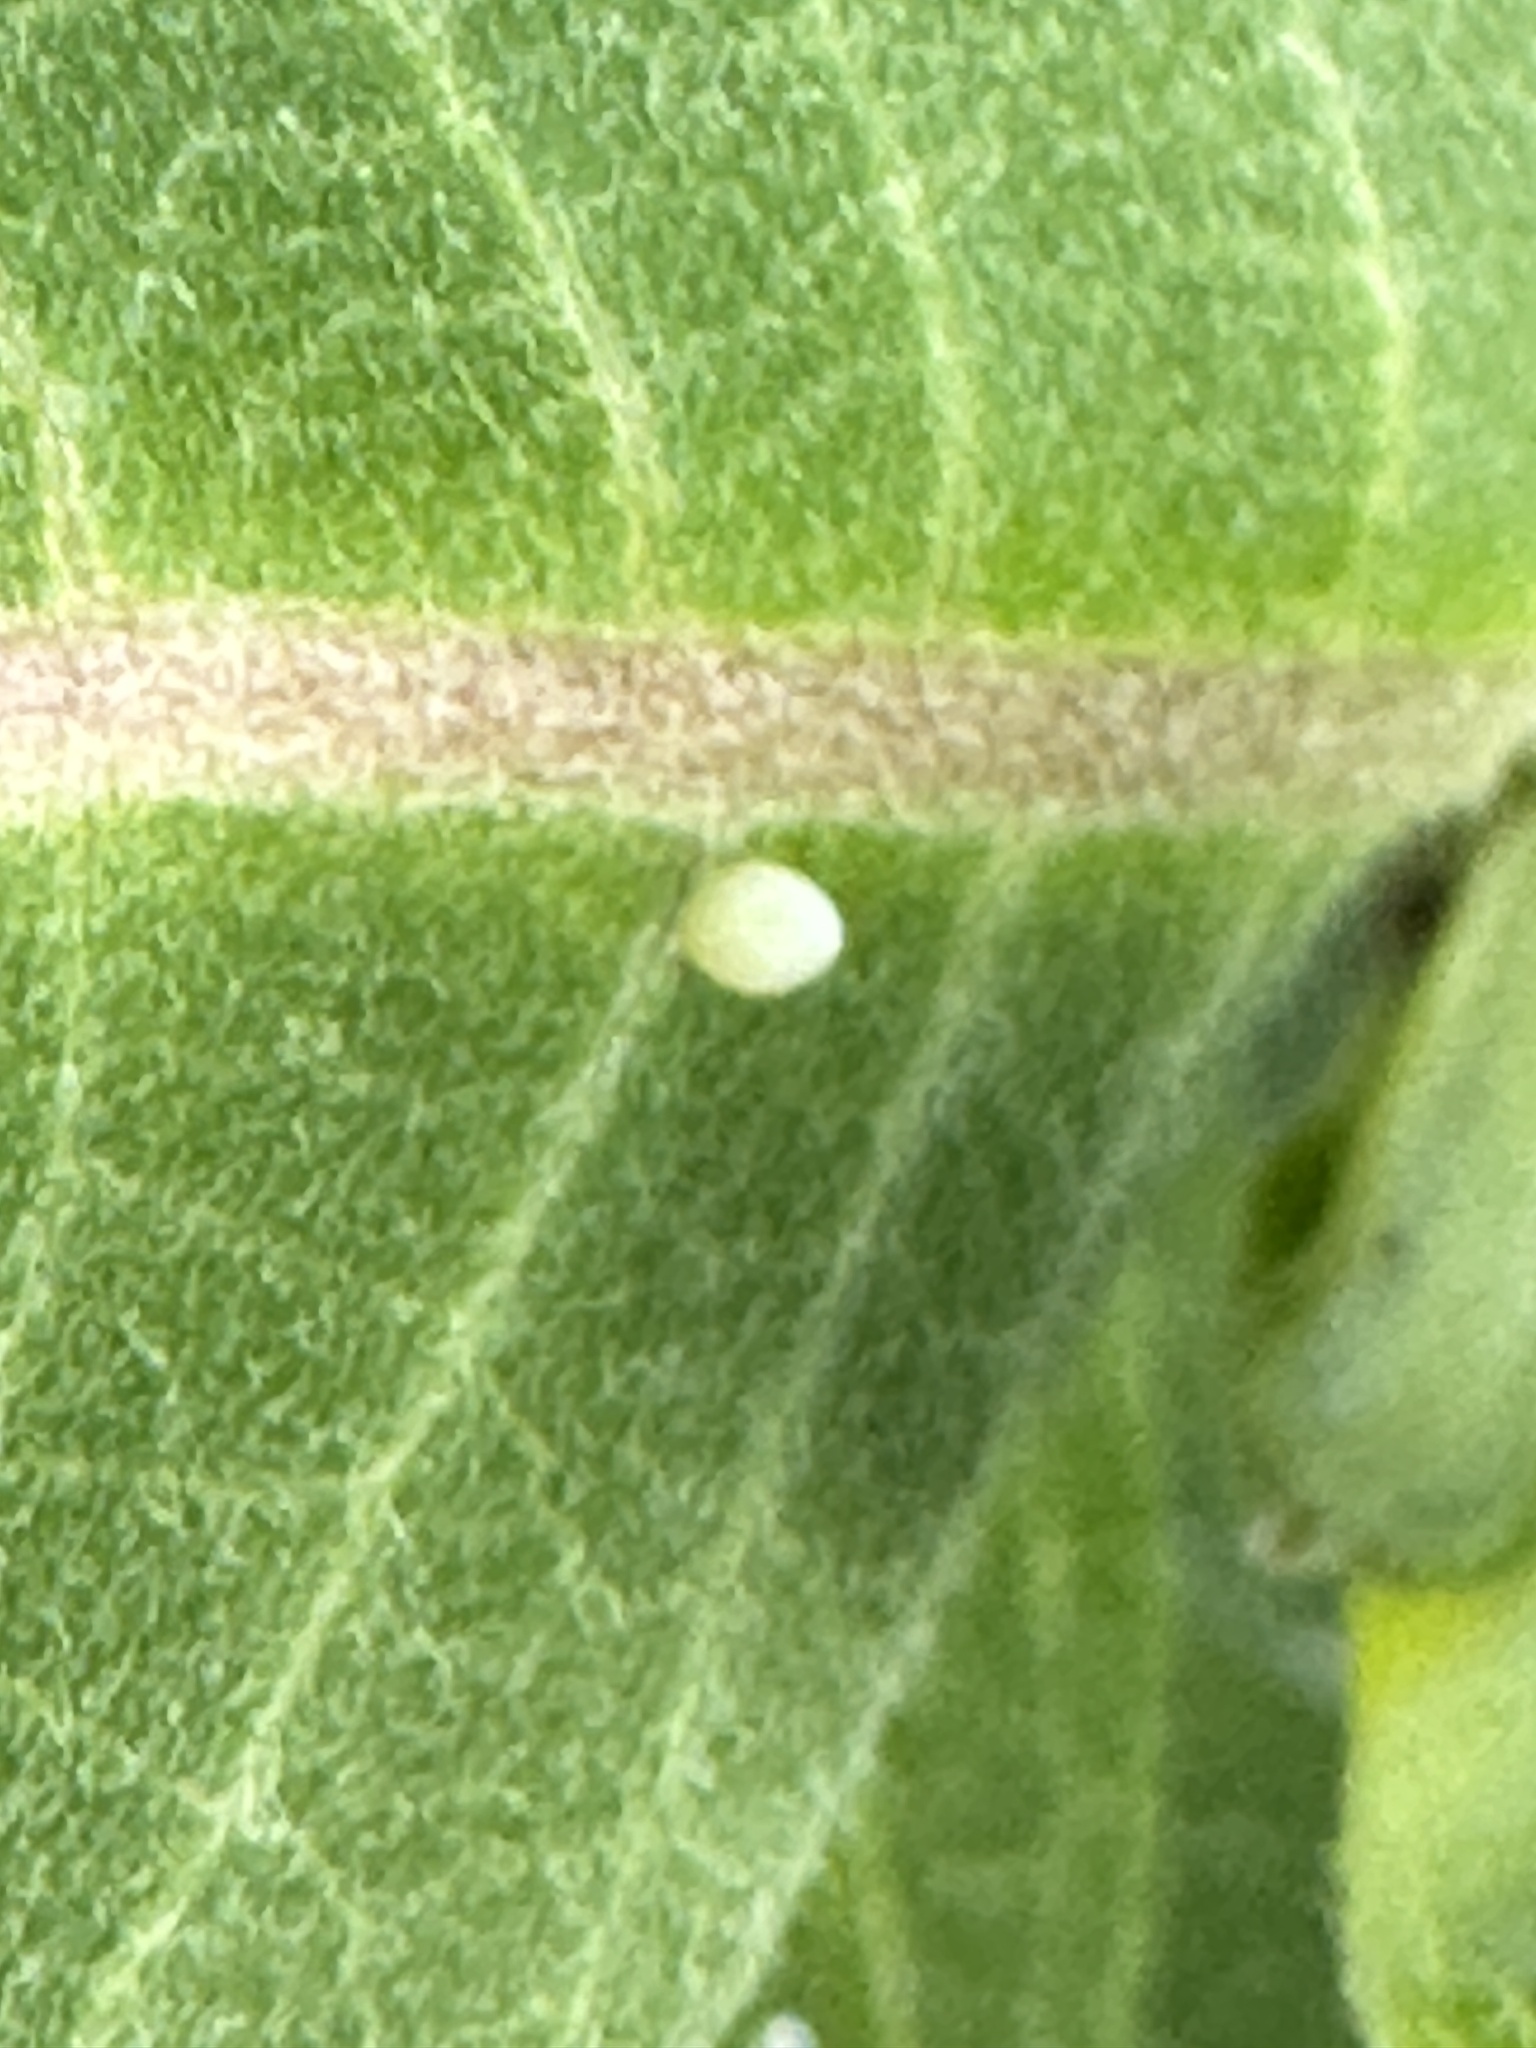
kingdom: Animalia
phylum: Arthropoda
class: Insecta
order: Lepidoptera
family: Nymphalidae
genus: Danaus
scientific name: Danaus plexippus
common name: Monarch
